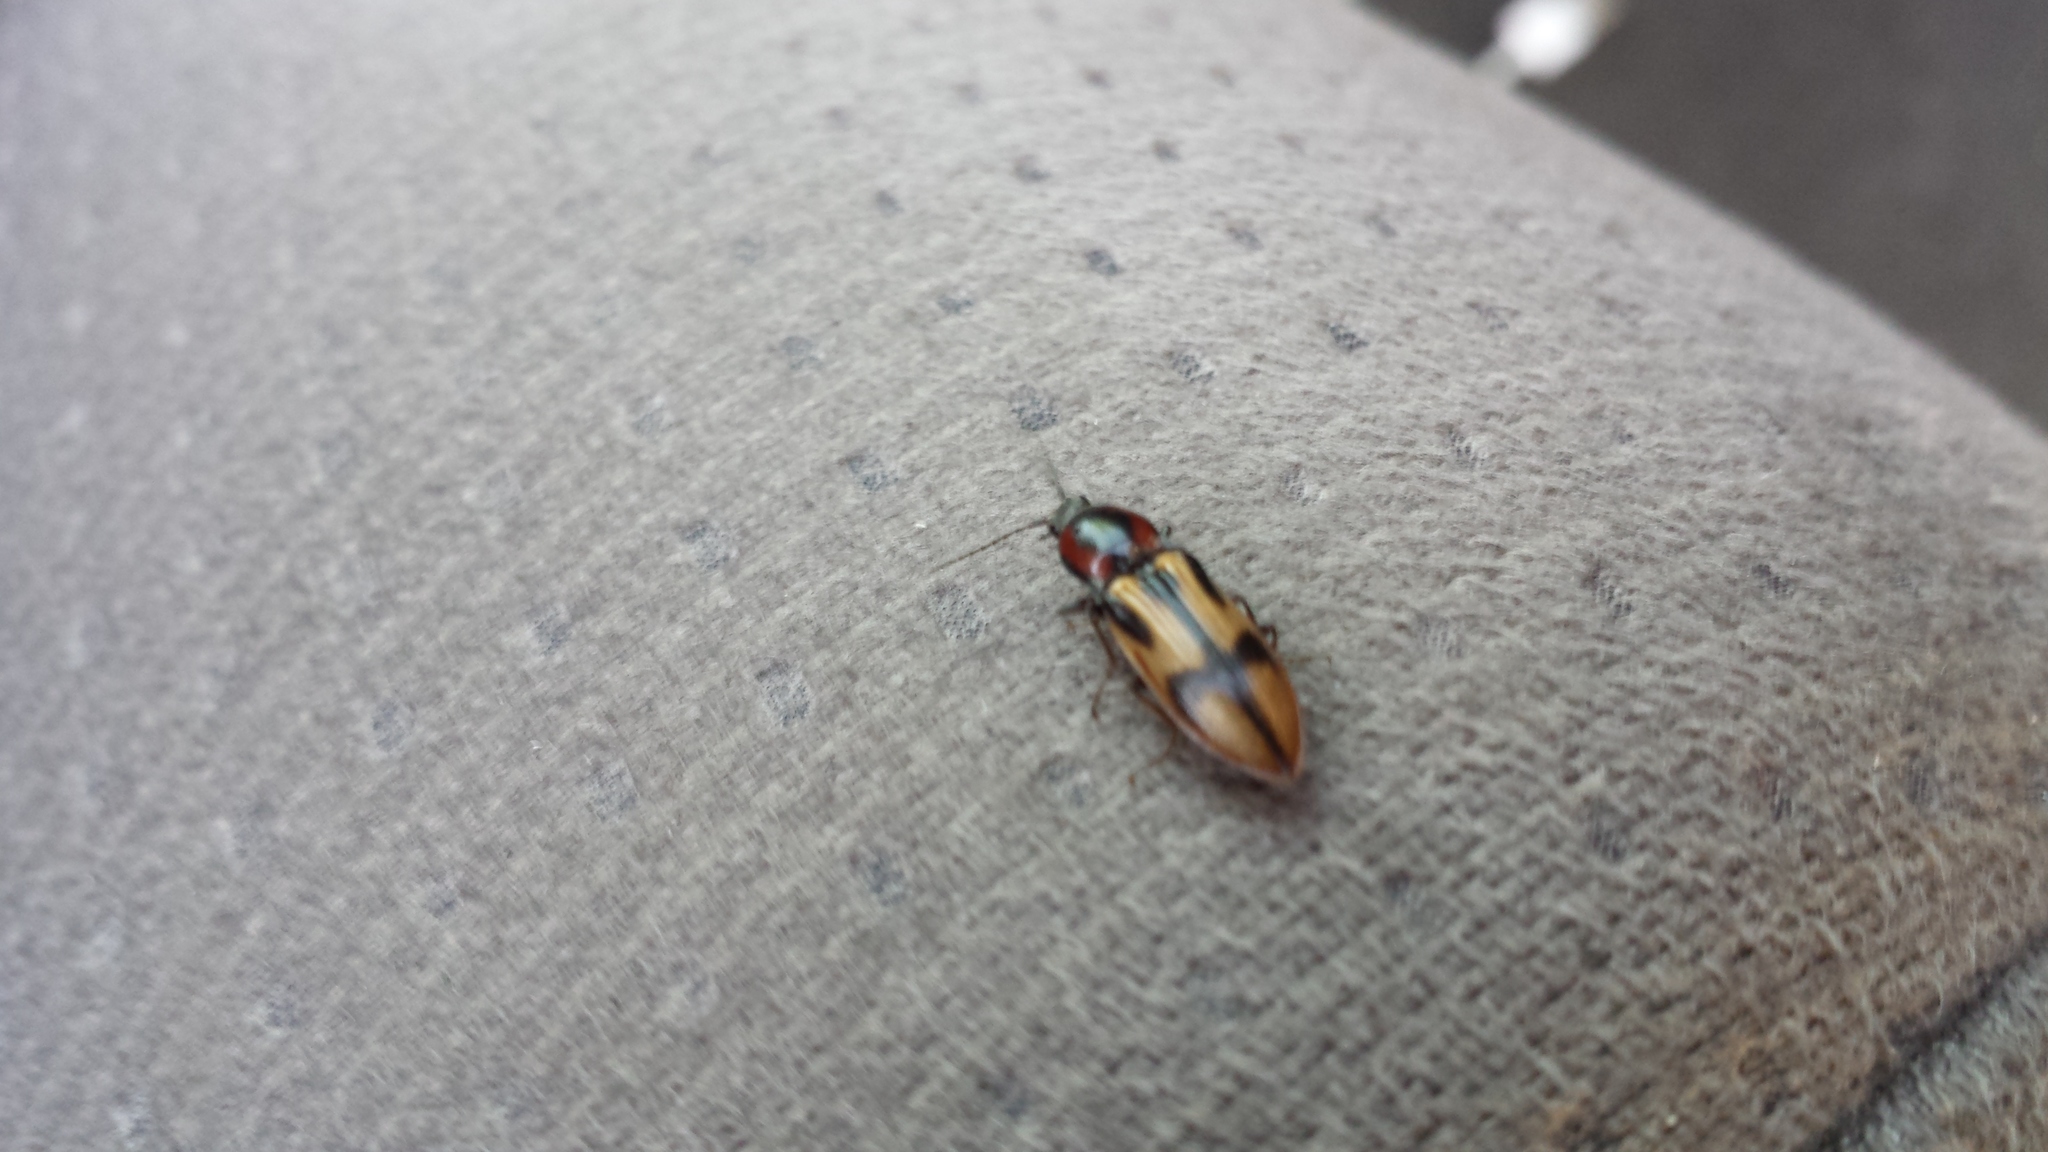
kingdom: Animalia
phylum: Arthropoda
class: Insecta
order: Coleoptera
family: Elateridae
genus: Selatosomus
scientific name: Selatosomus pulcher
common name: Noble click beetle
